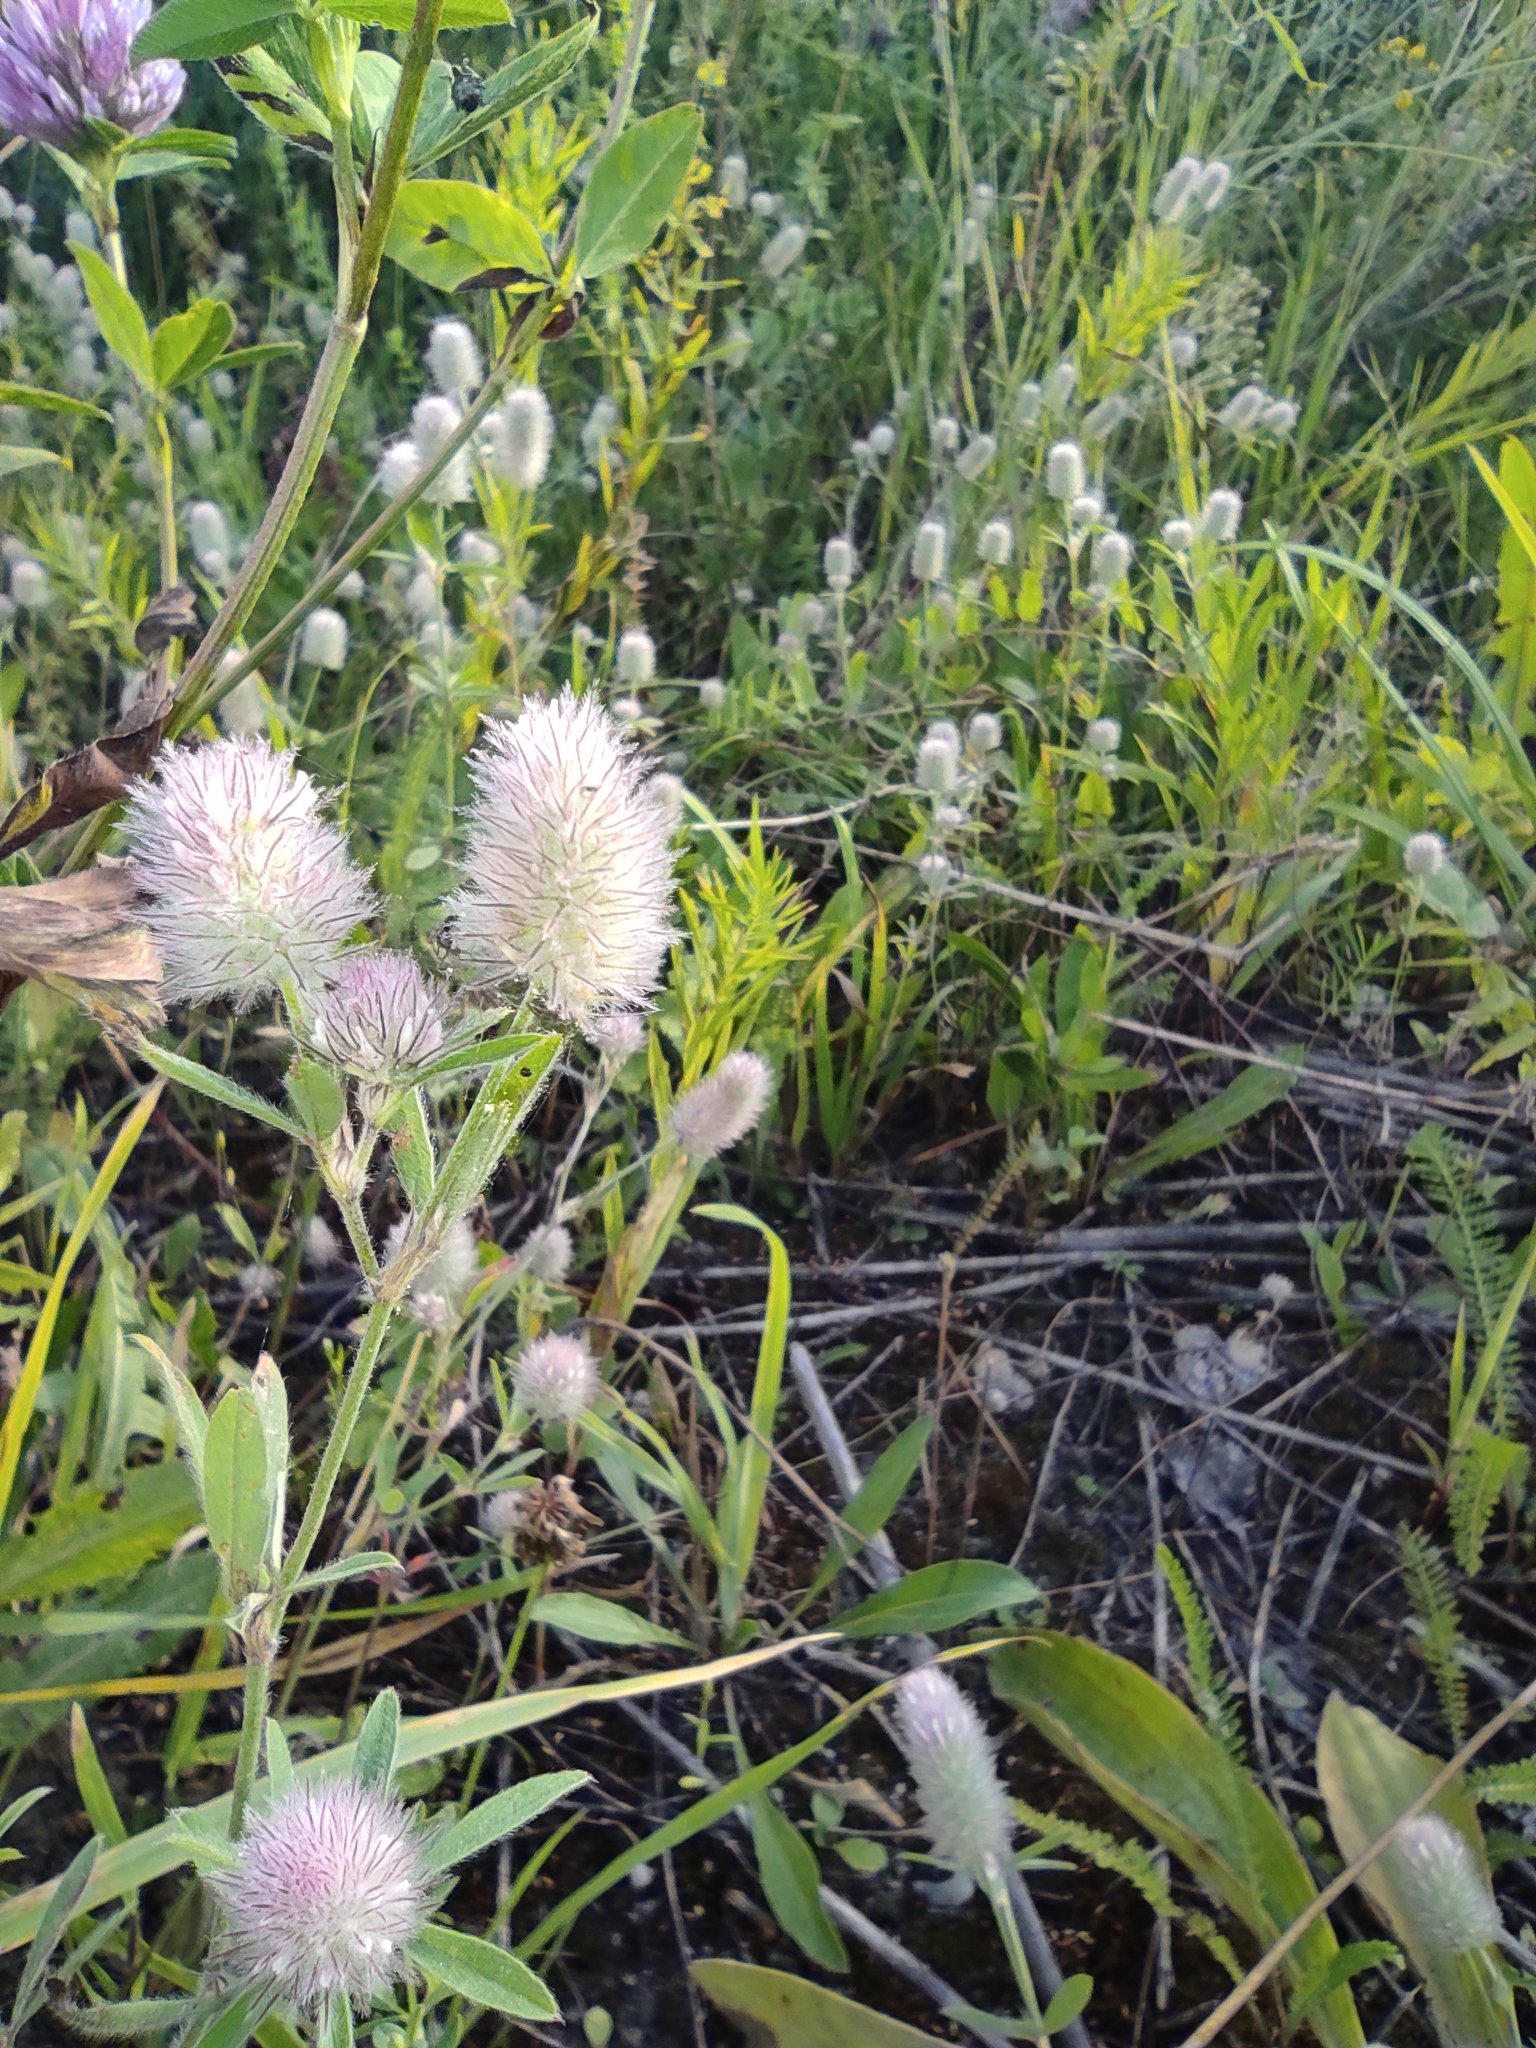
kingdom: Plantae
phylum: Tracheophyta
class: Magnoliopsida
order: Fabales
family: Fabaceae
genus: Trifolium
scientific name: Trifolium arvense
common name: Hare's-foot clover
